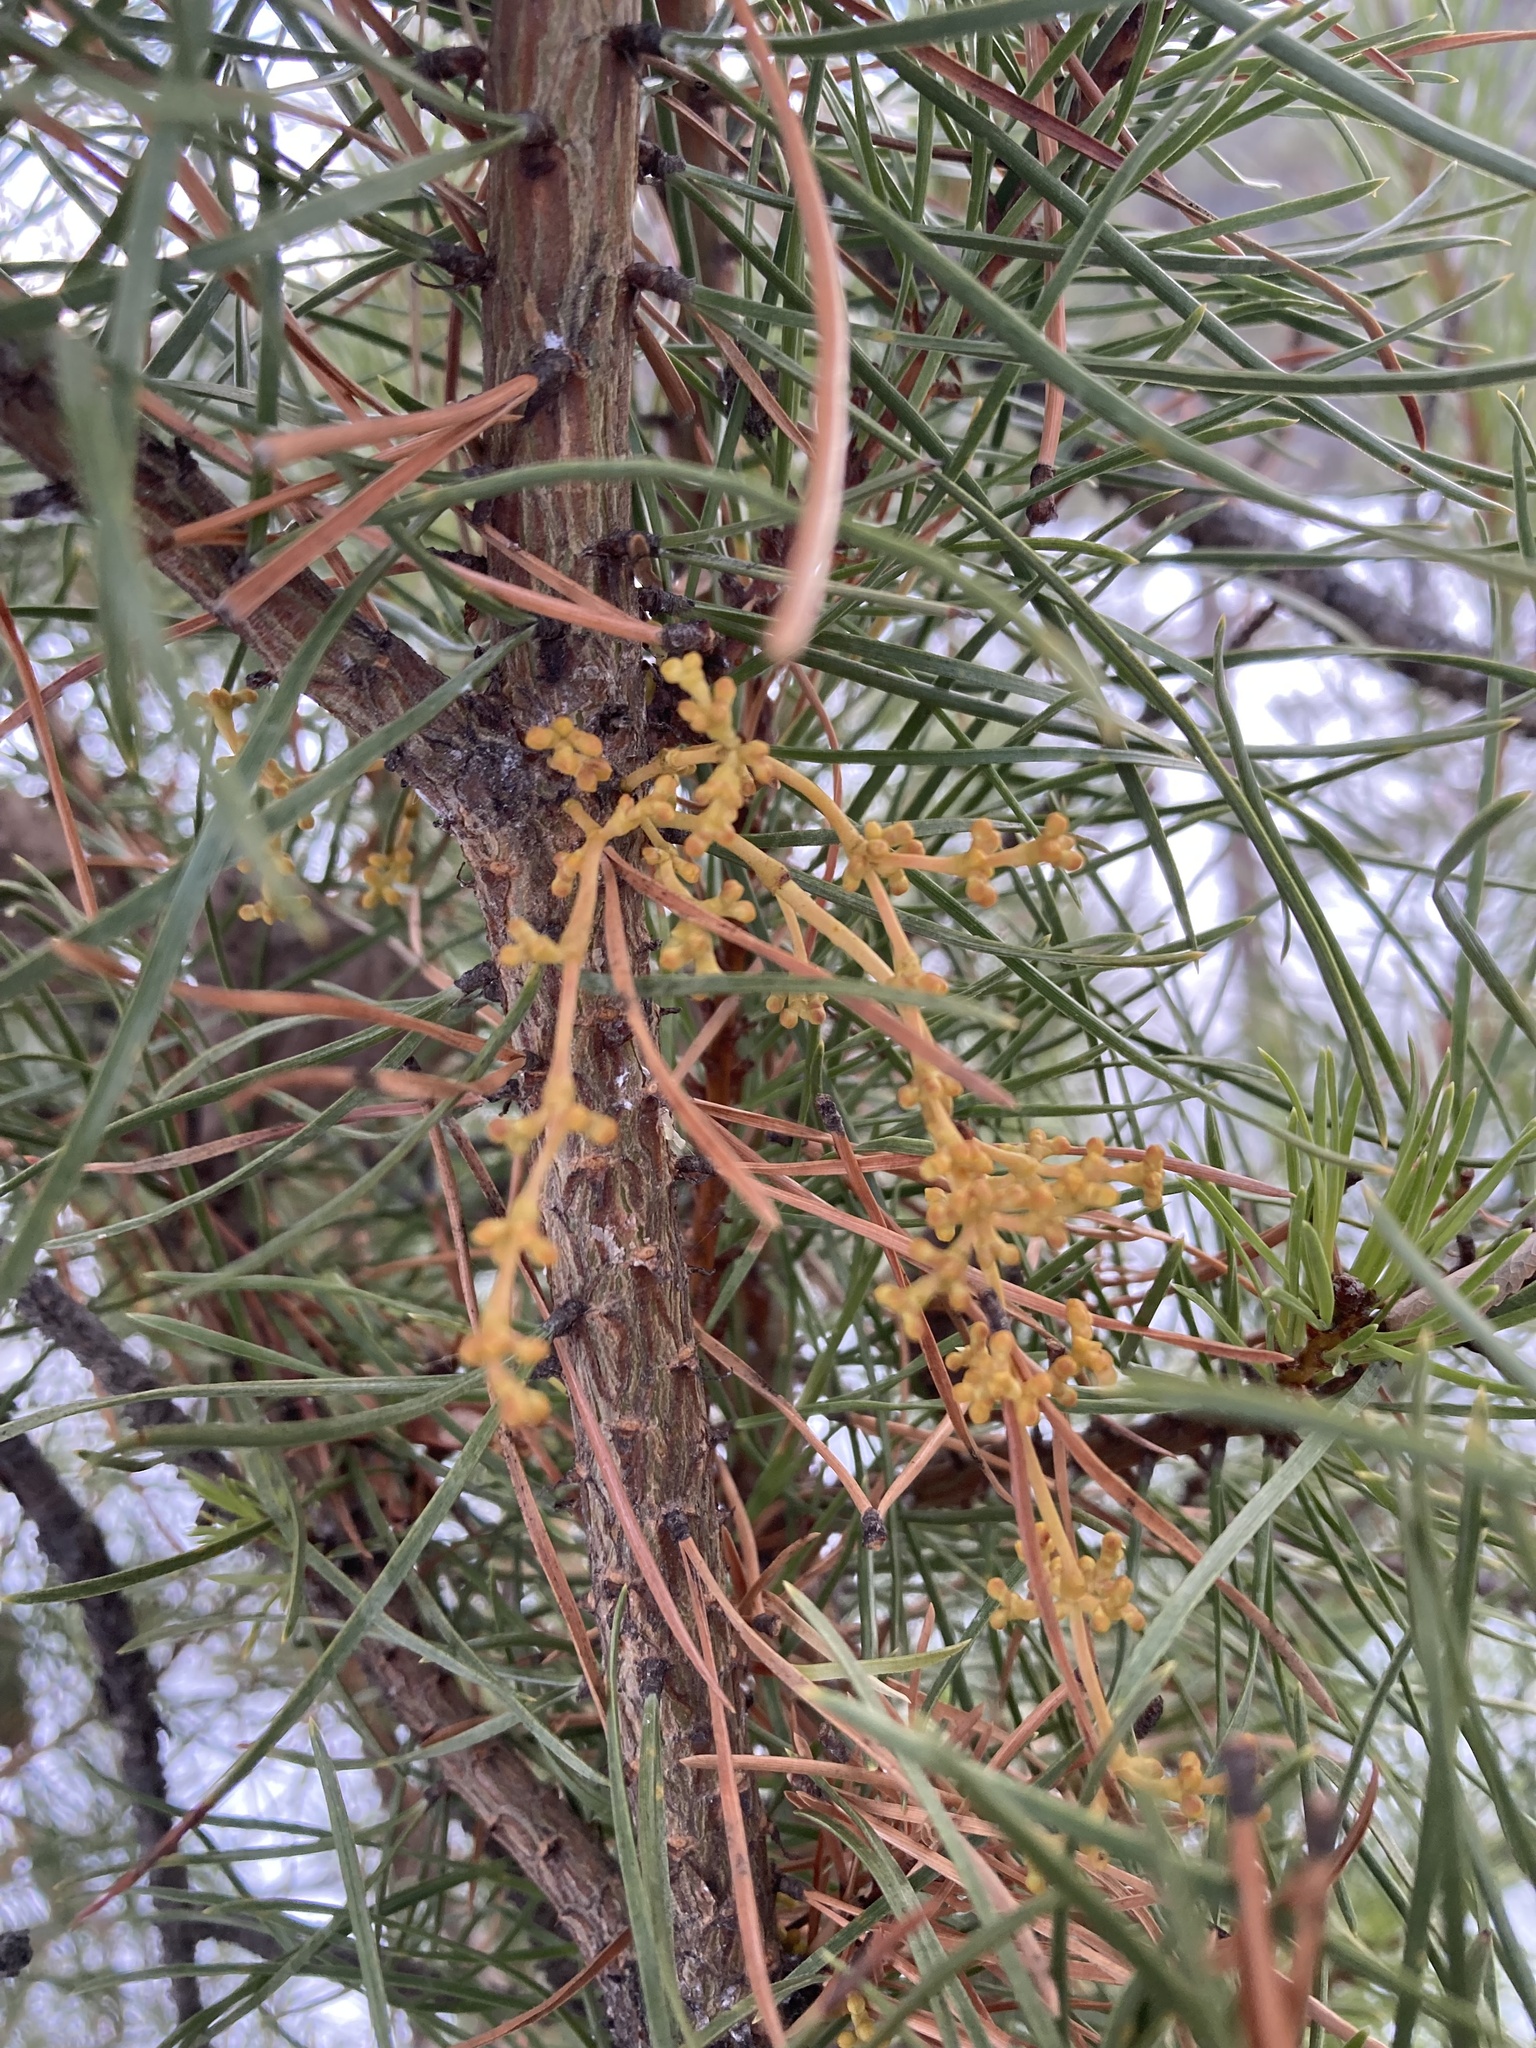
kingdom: Plantae
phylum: Tracheophyta
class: Magnoliopsida
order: Santalales
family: Viscaceae
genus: Arceuthobium
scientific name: Arceuthobium americanum
